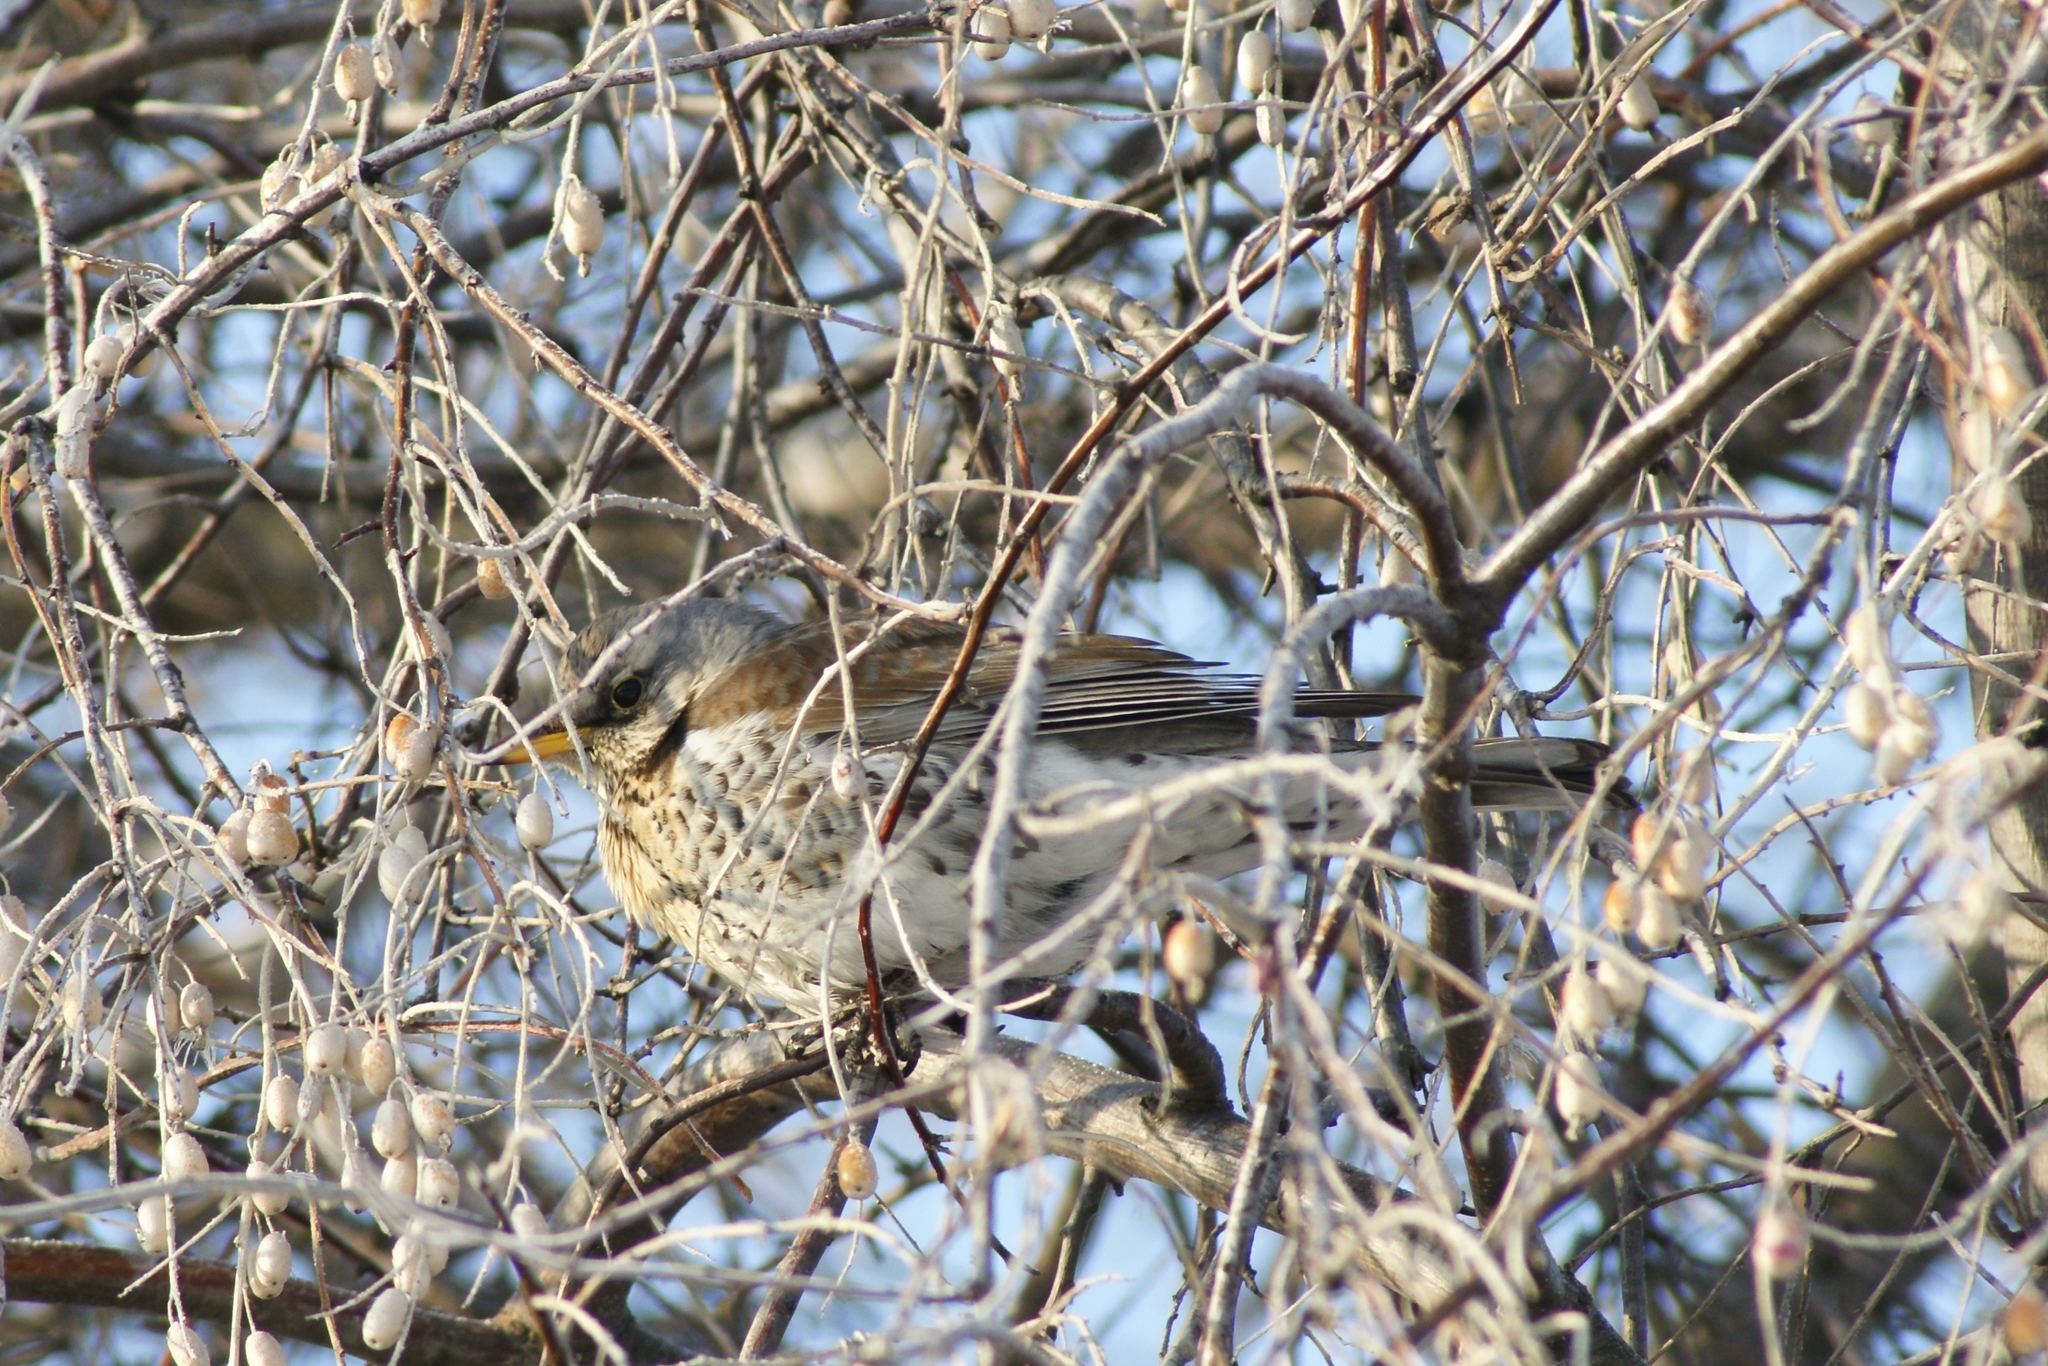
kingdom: Animalia
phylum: Chordata
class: Aves
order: Passeriformes
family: Turdidae
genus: Turdus
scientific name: Turdus pilaris
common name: Fieldfare
